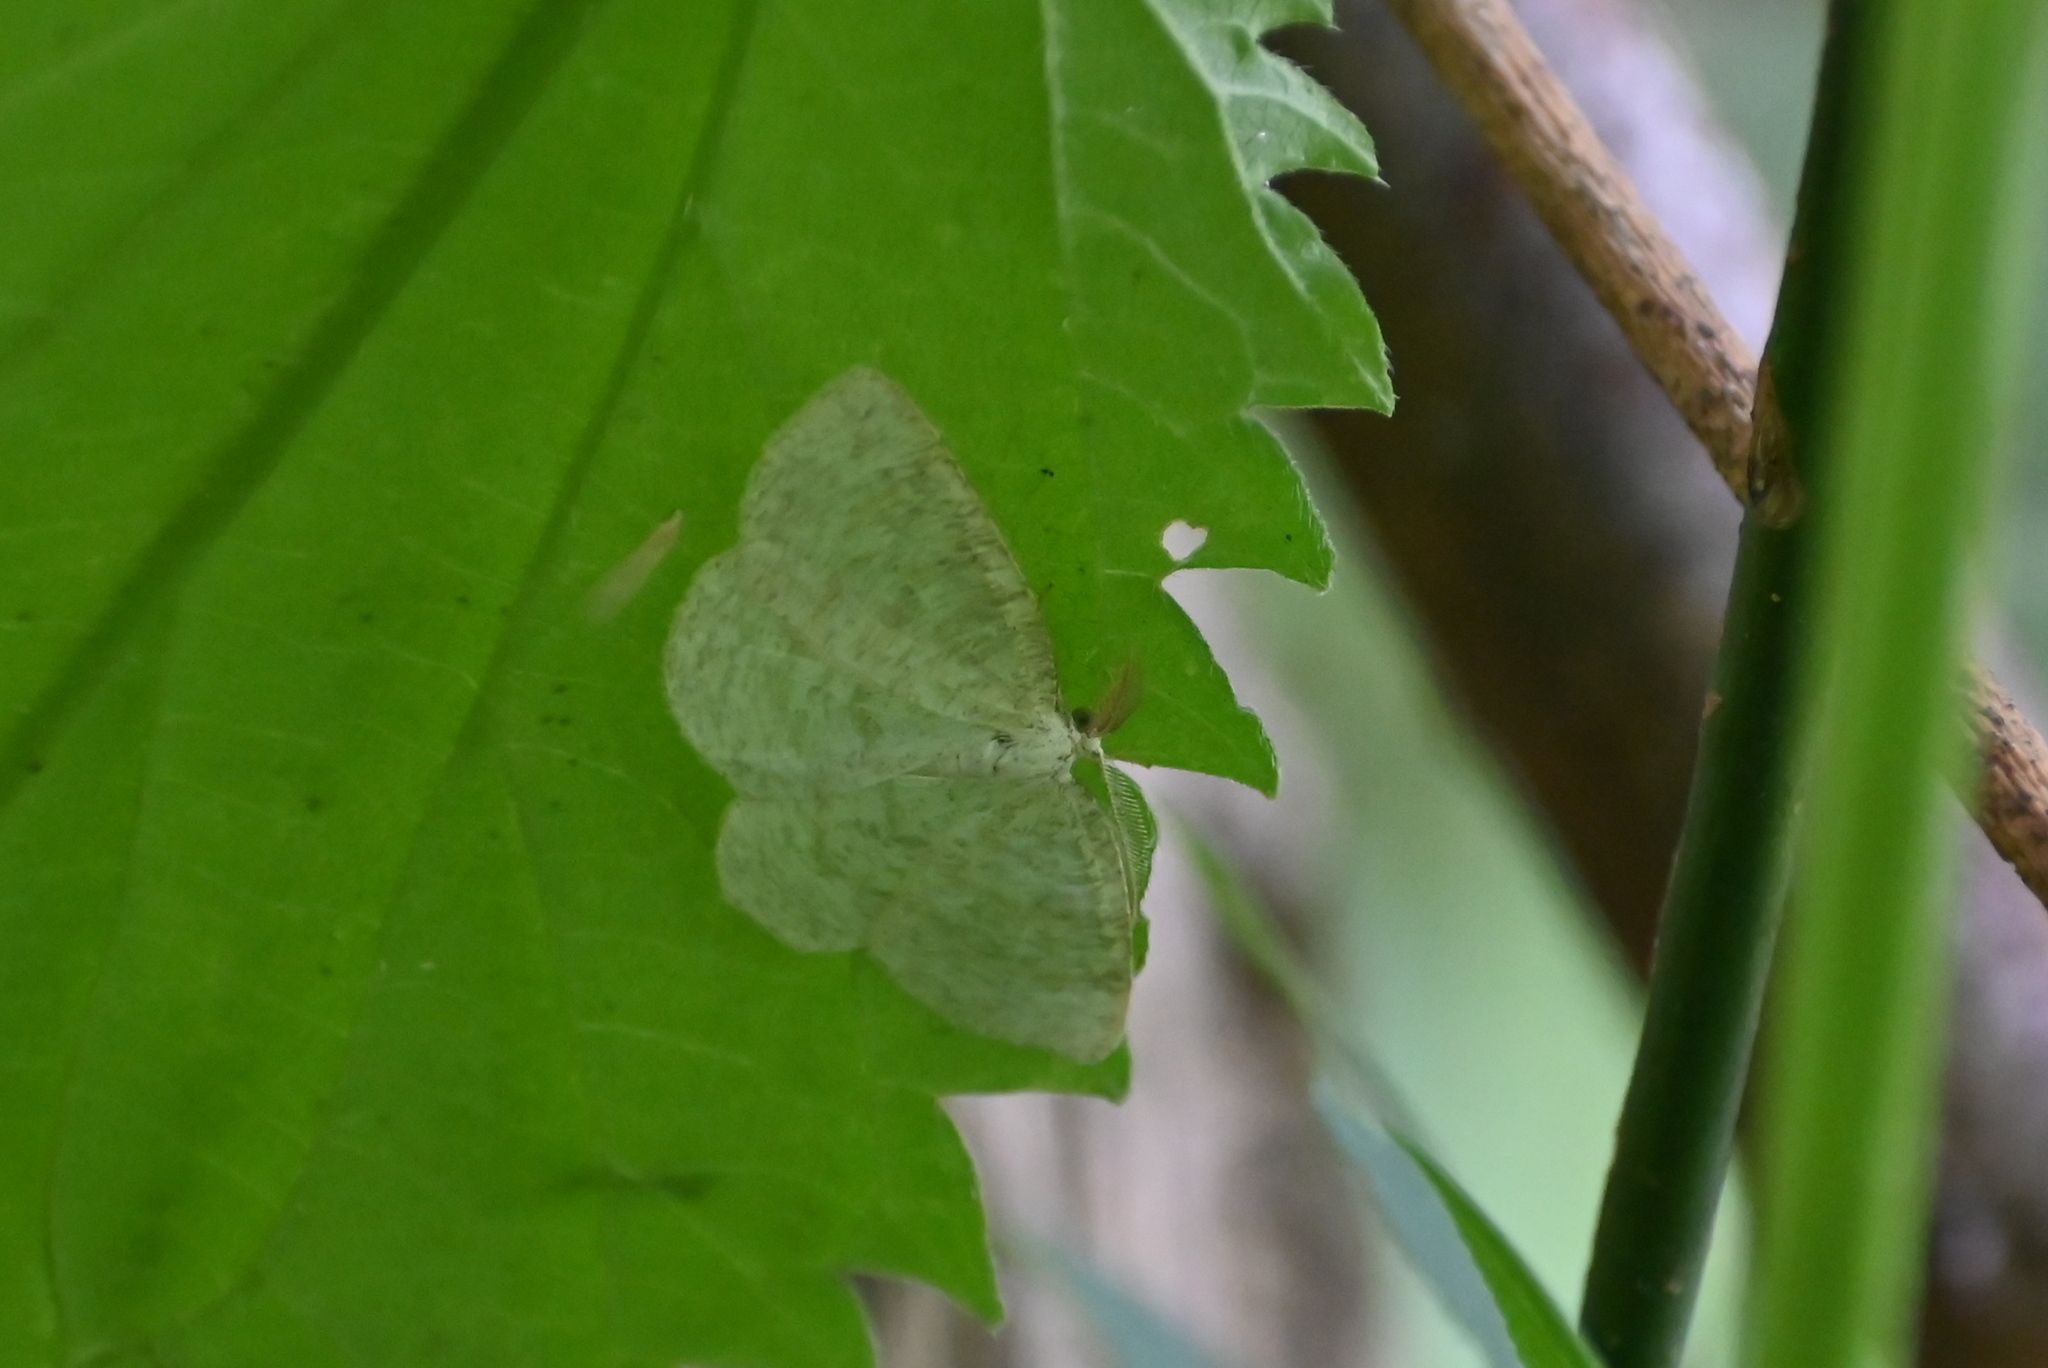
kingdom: Animalia
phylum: Arthropoda
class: Insecta
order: Lepidoptera
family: Geometridae
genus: Cabera
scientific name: Cabera exanthemata
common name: Common wave
